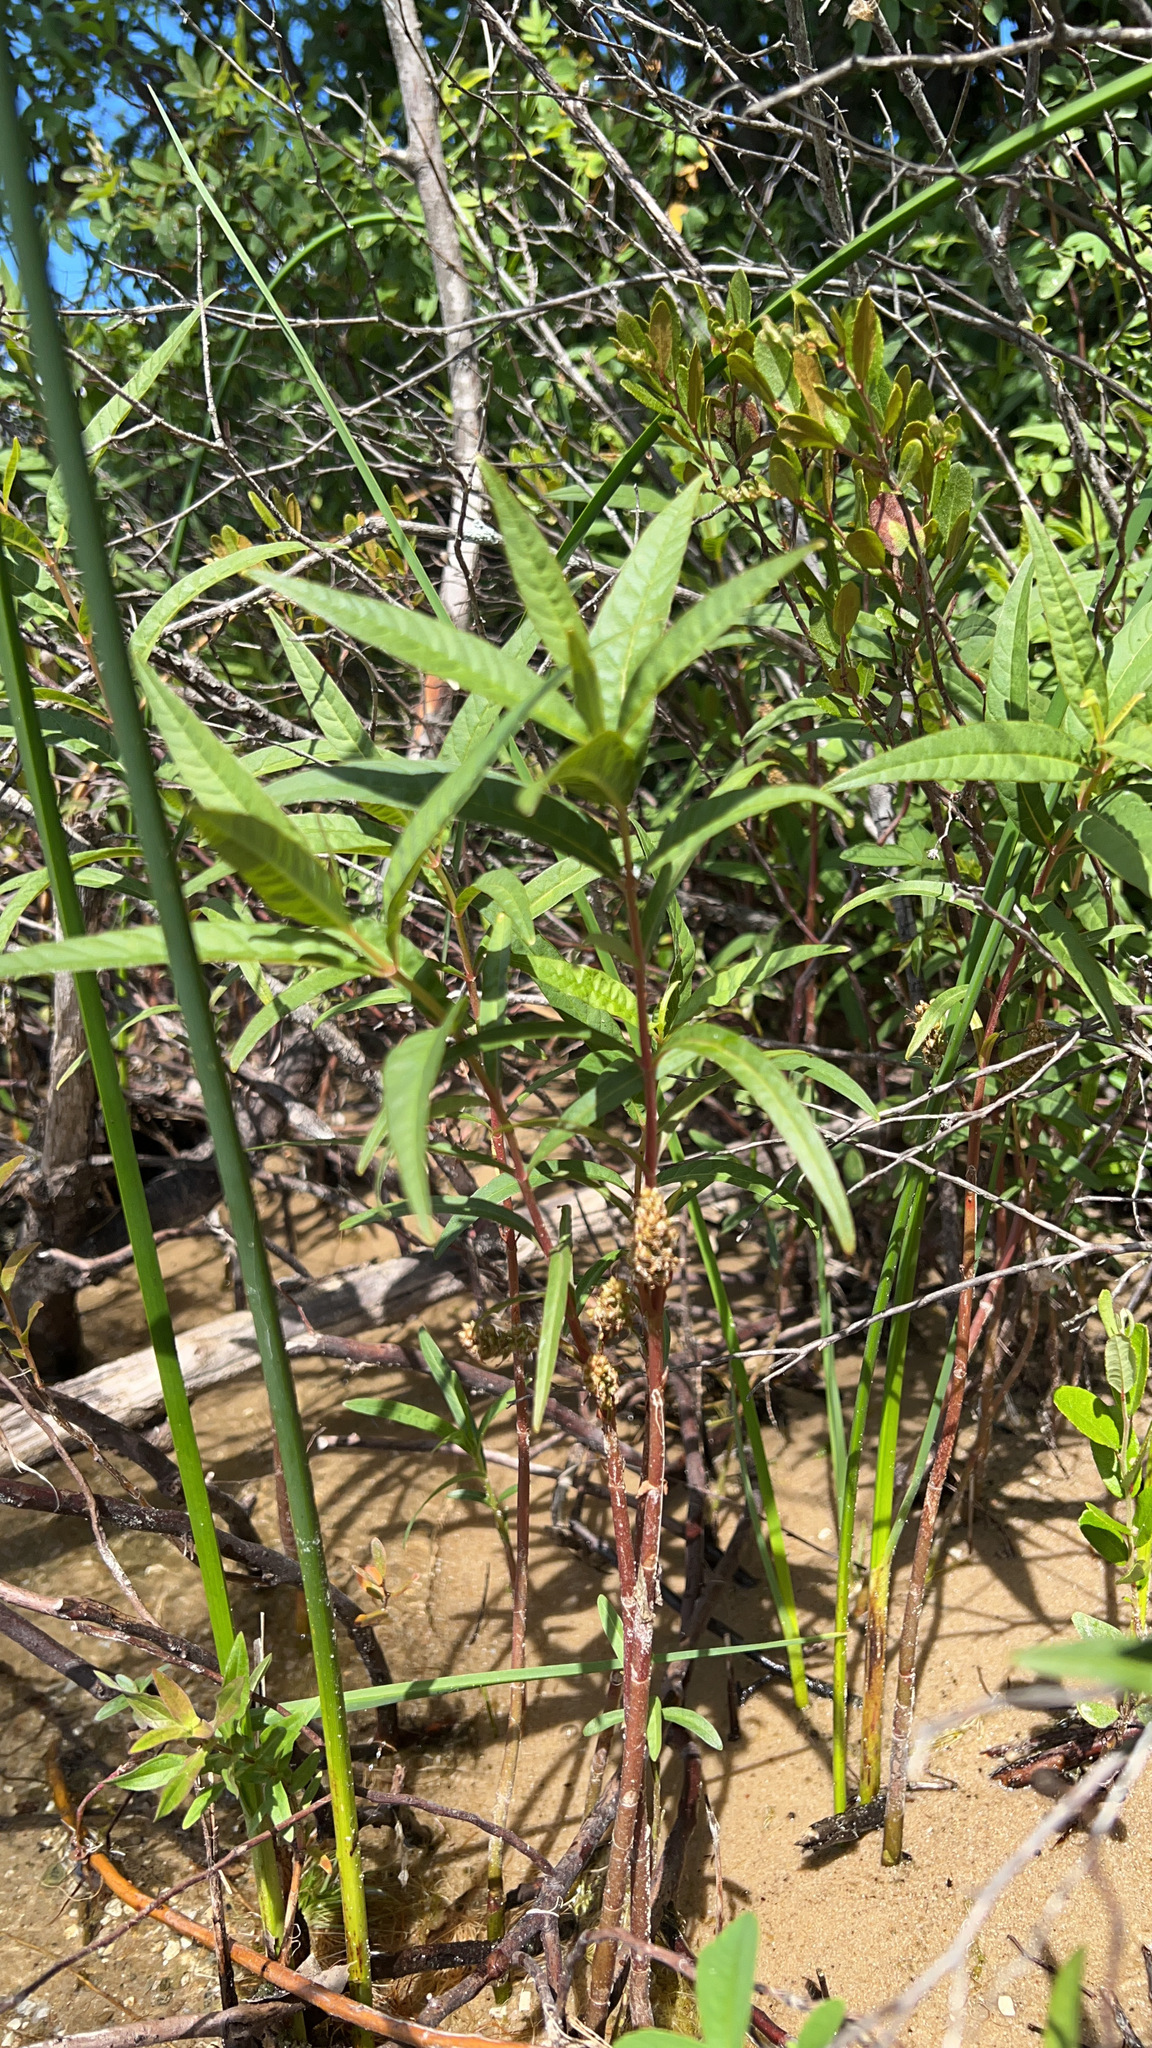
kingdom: Plantae
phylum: Tracheophyta
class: Magnoliopsida
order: Ericales
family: Primulaceae
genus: Lysimachia
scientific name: Lysimachia thyrsiflora
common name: Tufted loosestrife
